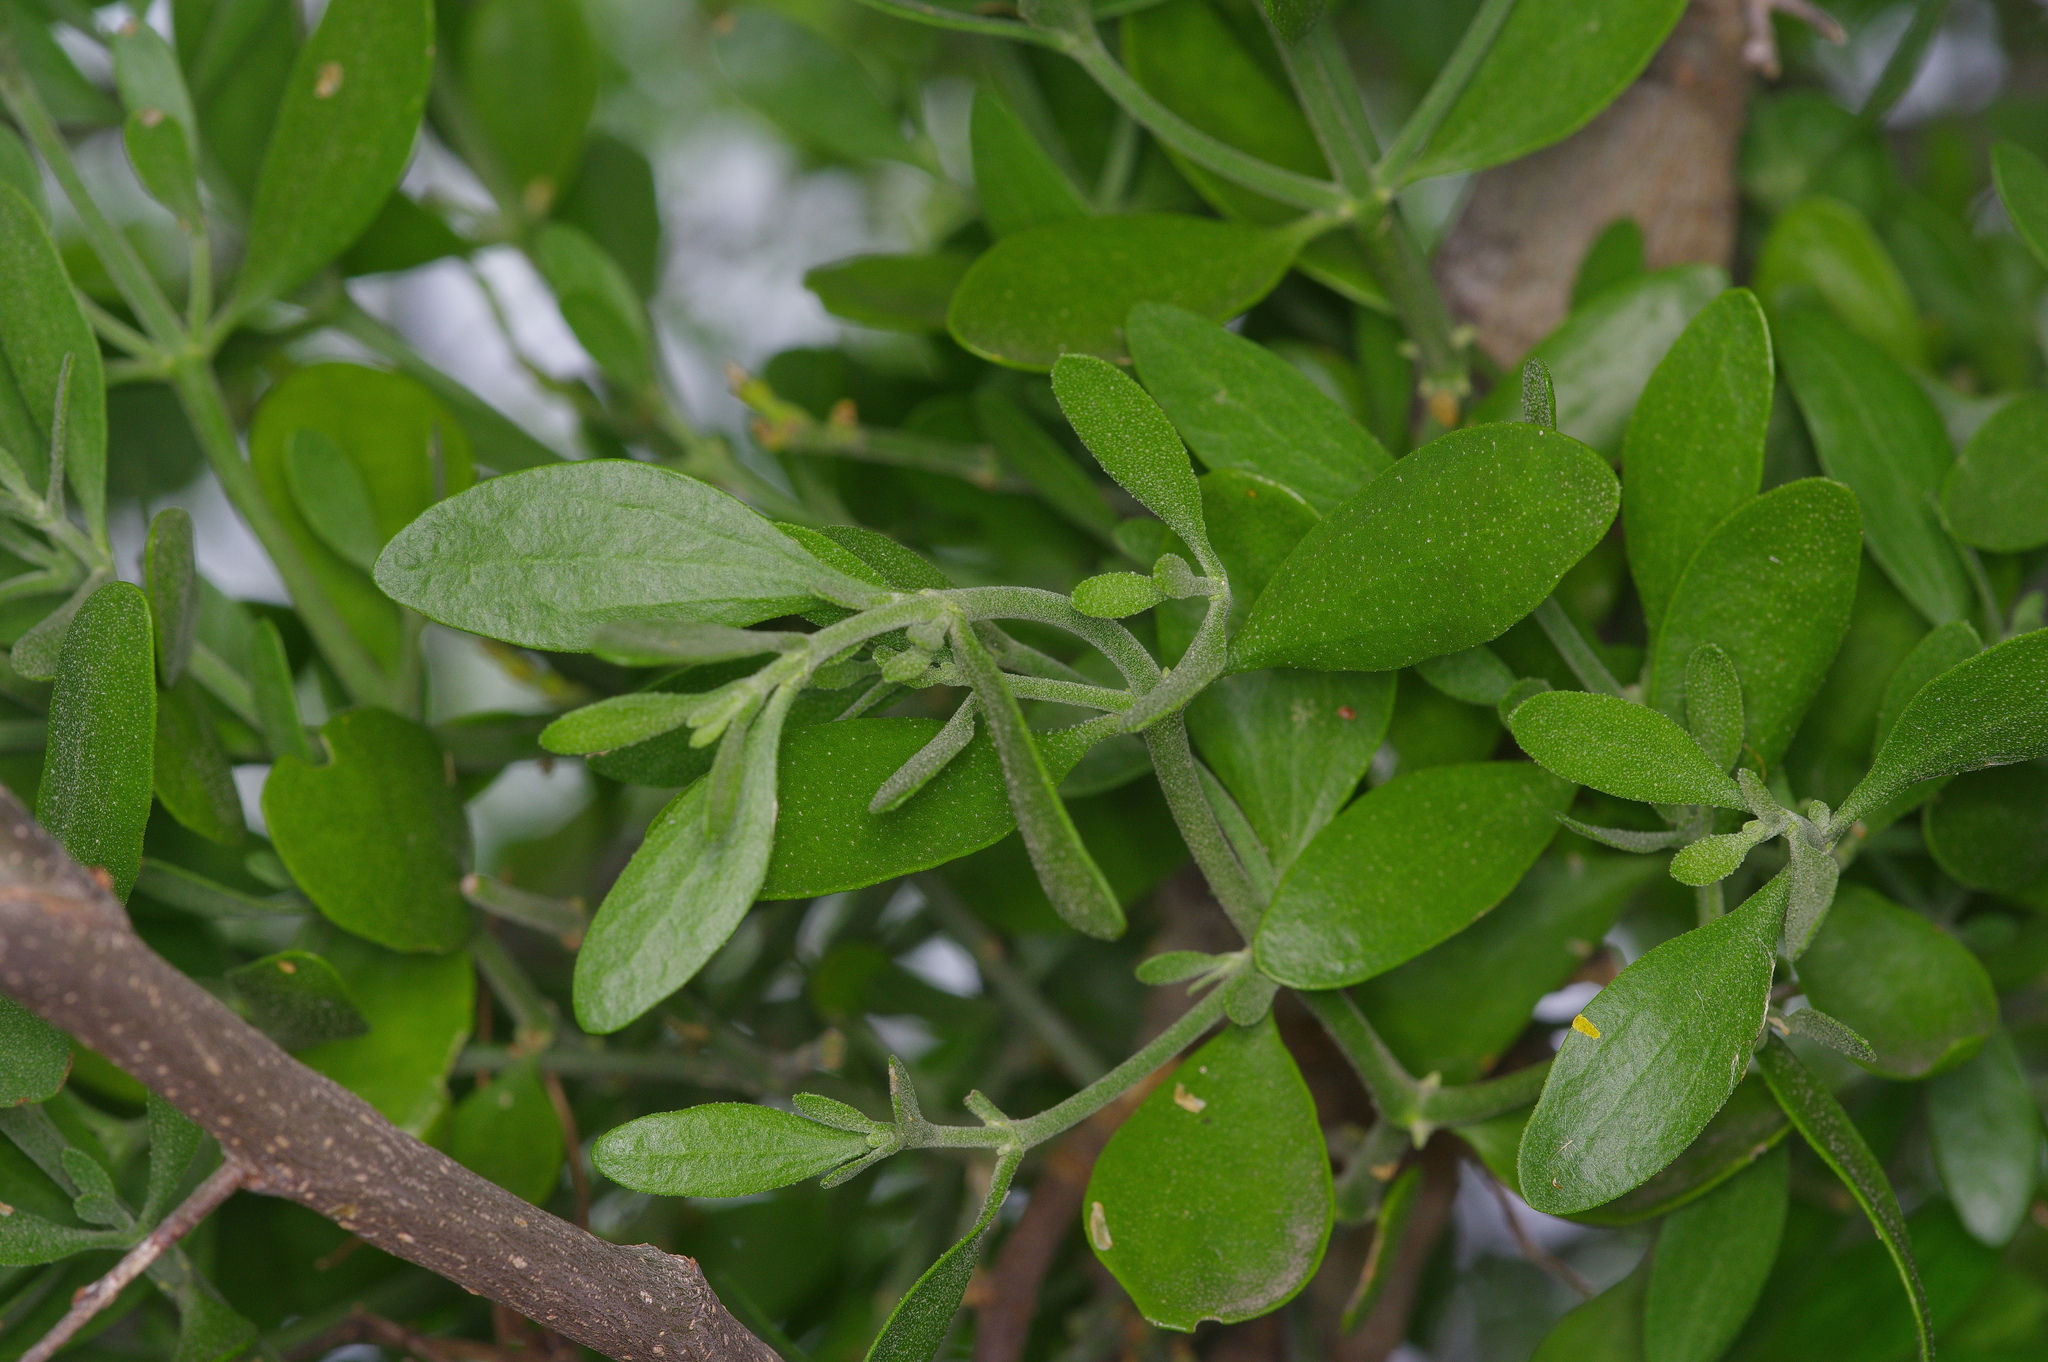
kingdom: Plantae
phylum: Tracheophyta
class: Magnoliopsida
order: Santalales
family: Viscaceae
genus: Phoradendron
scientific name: Phoradendron leucarpum
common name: Pacific mistletoe
